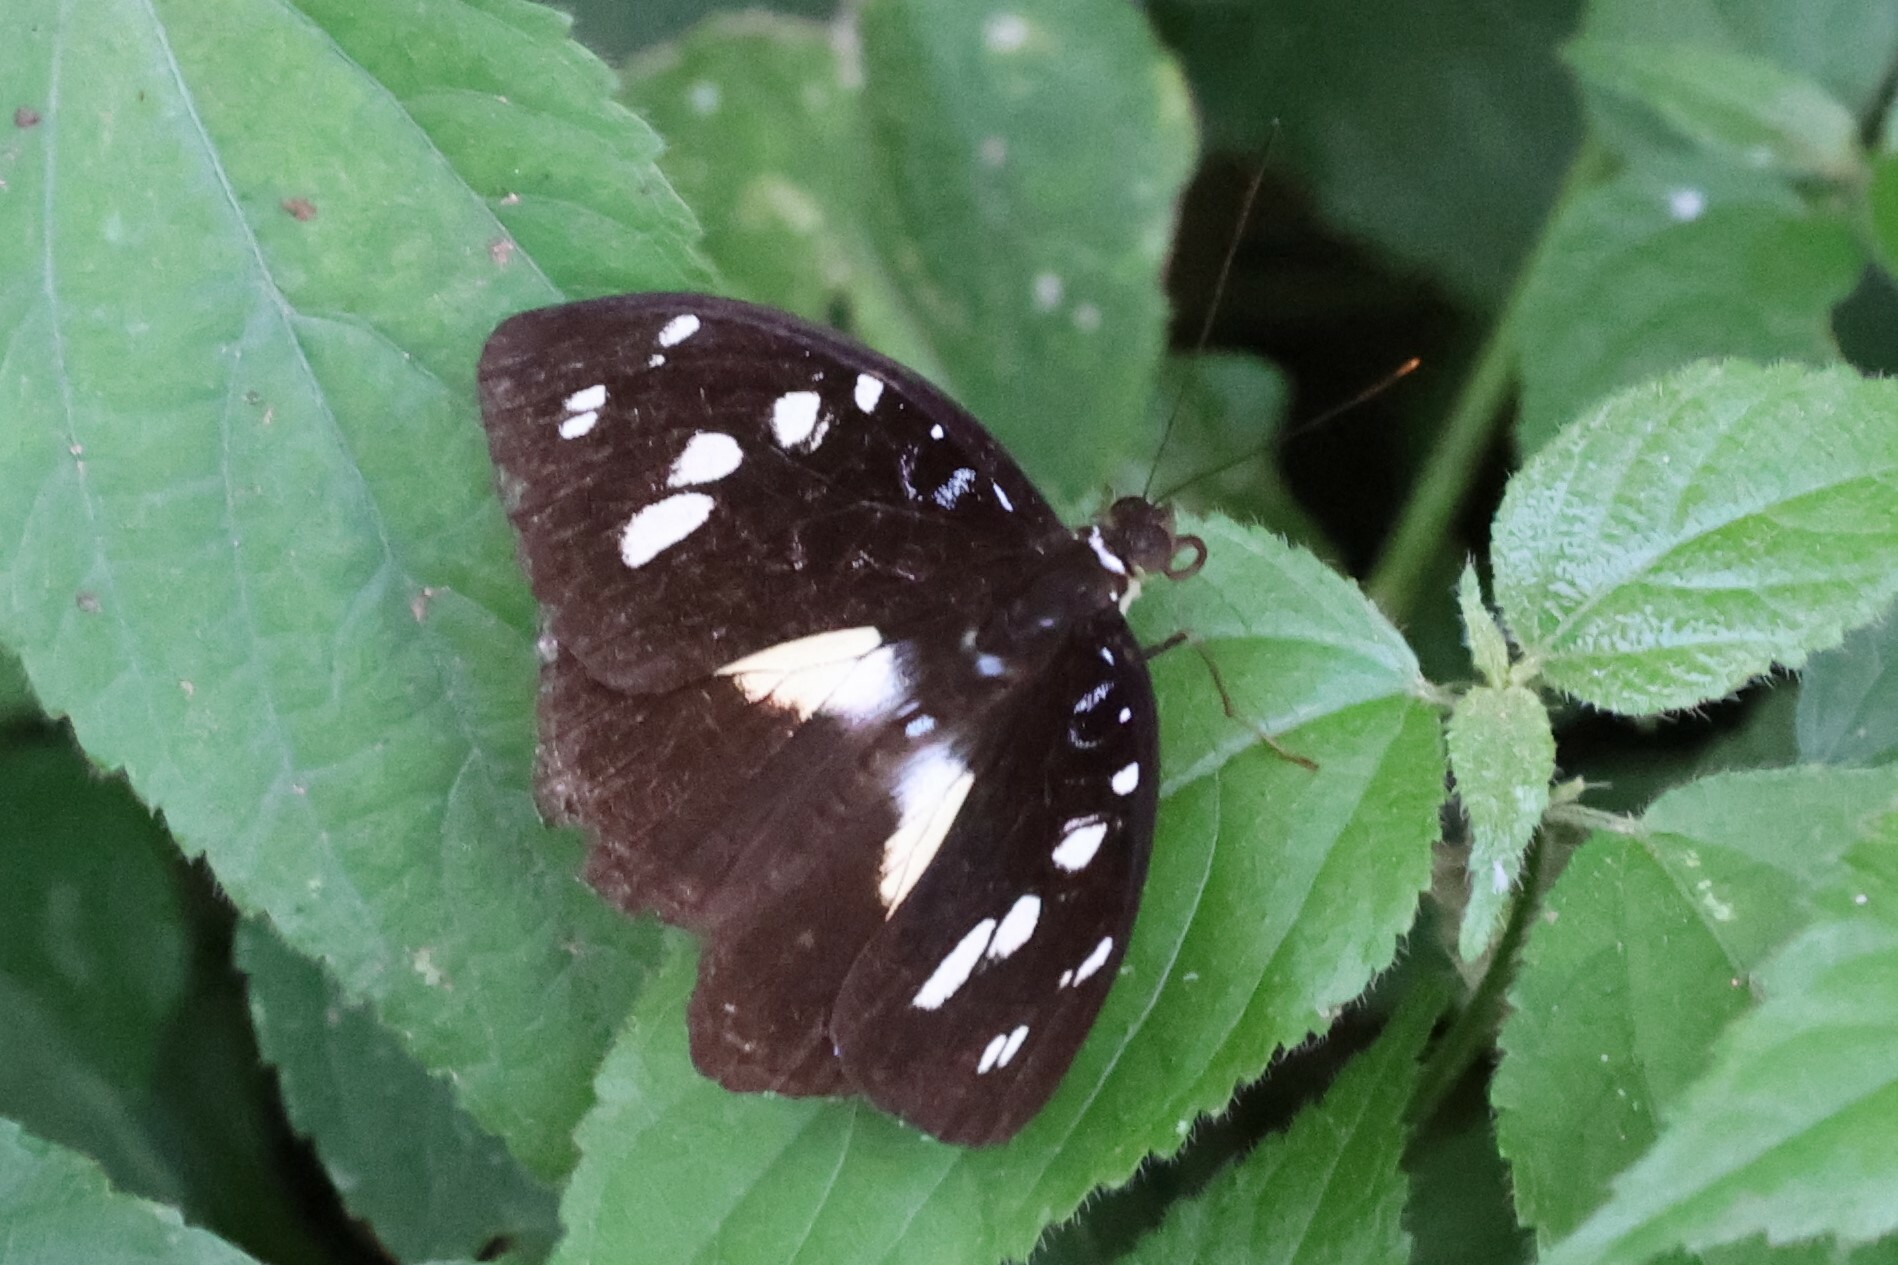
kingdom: Animalia
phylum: Arthropoda
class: Insecta
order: Lepidoptera
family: Nymphalidae
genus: Aterica
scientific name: Aterica galene
